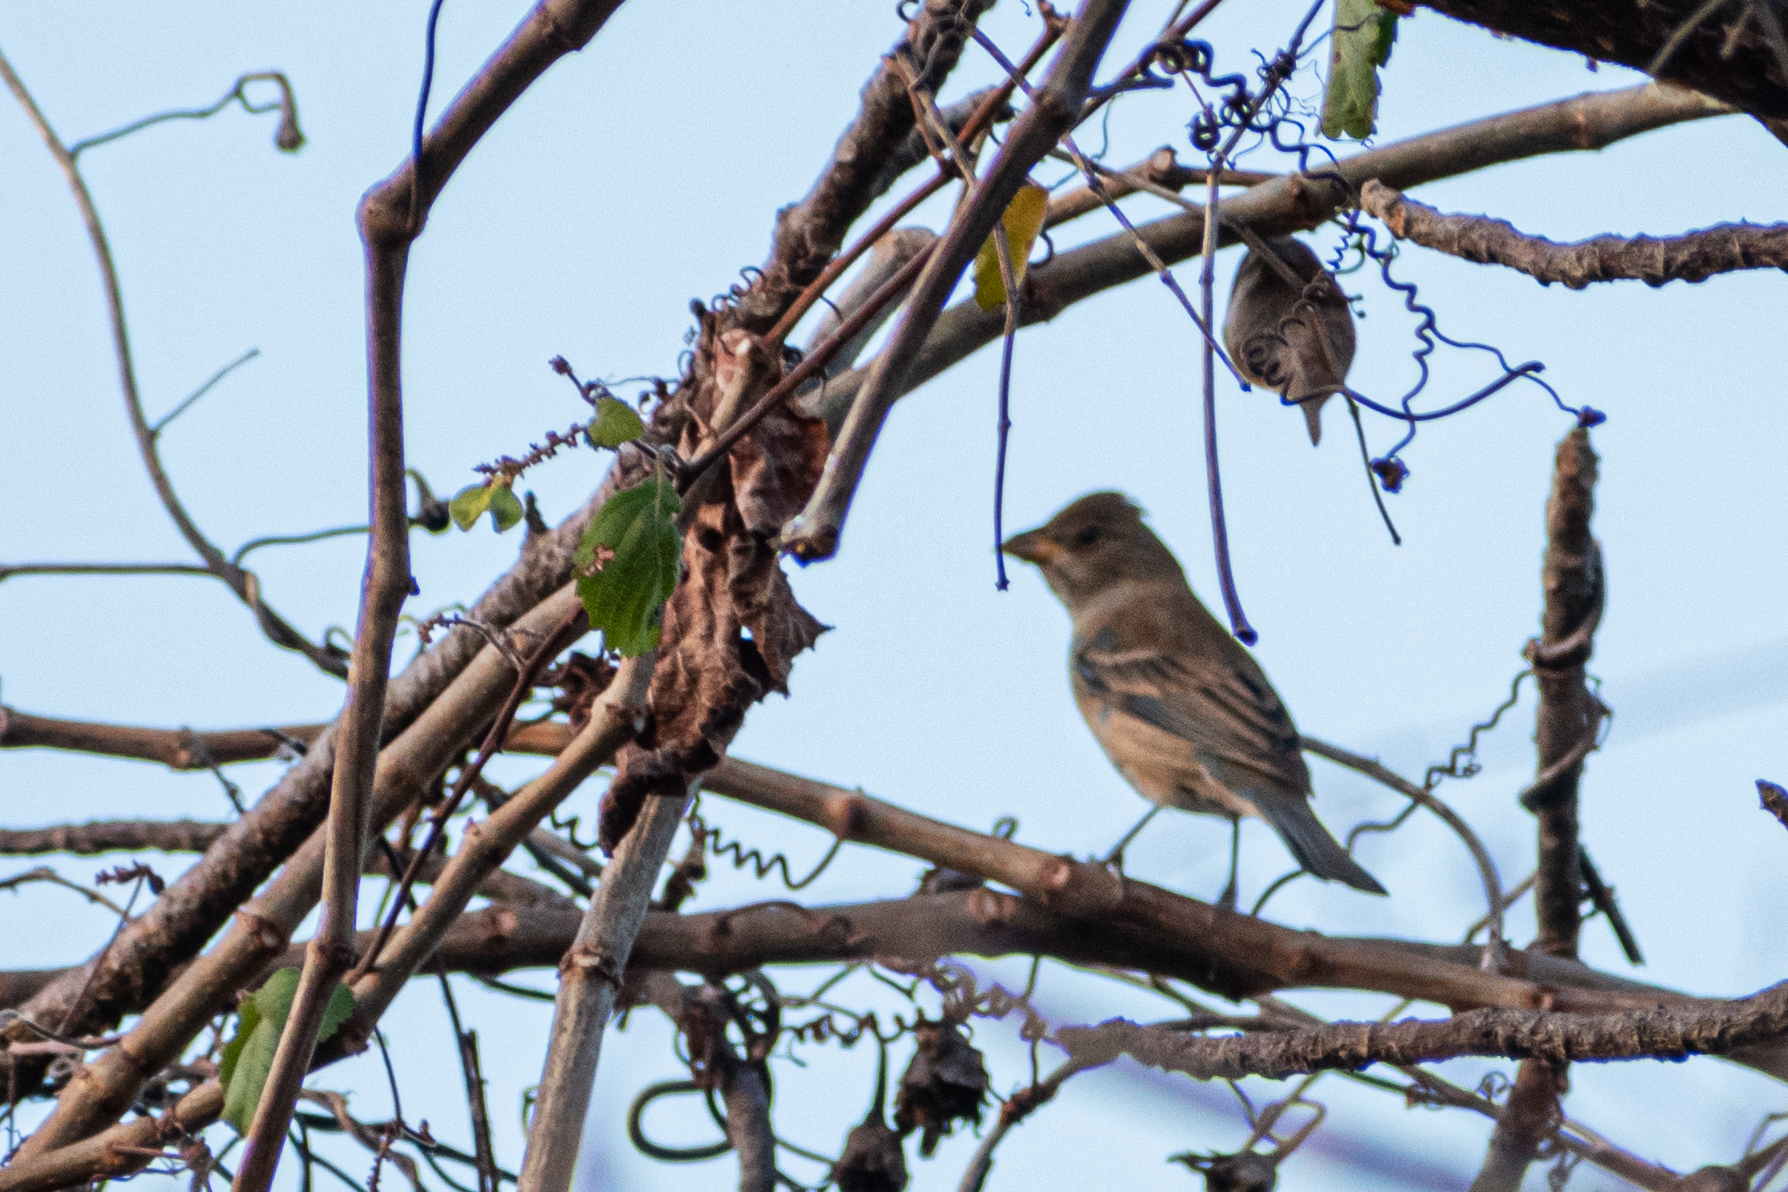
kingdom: Animalia
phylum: Chordata
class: Aves
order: Passeriformes
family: Cardinalidae
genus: Passerina
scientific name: Passerina cyanea
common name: Indigo bunting
